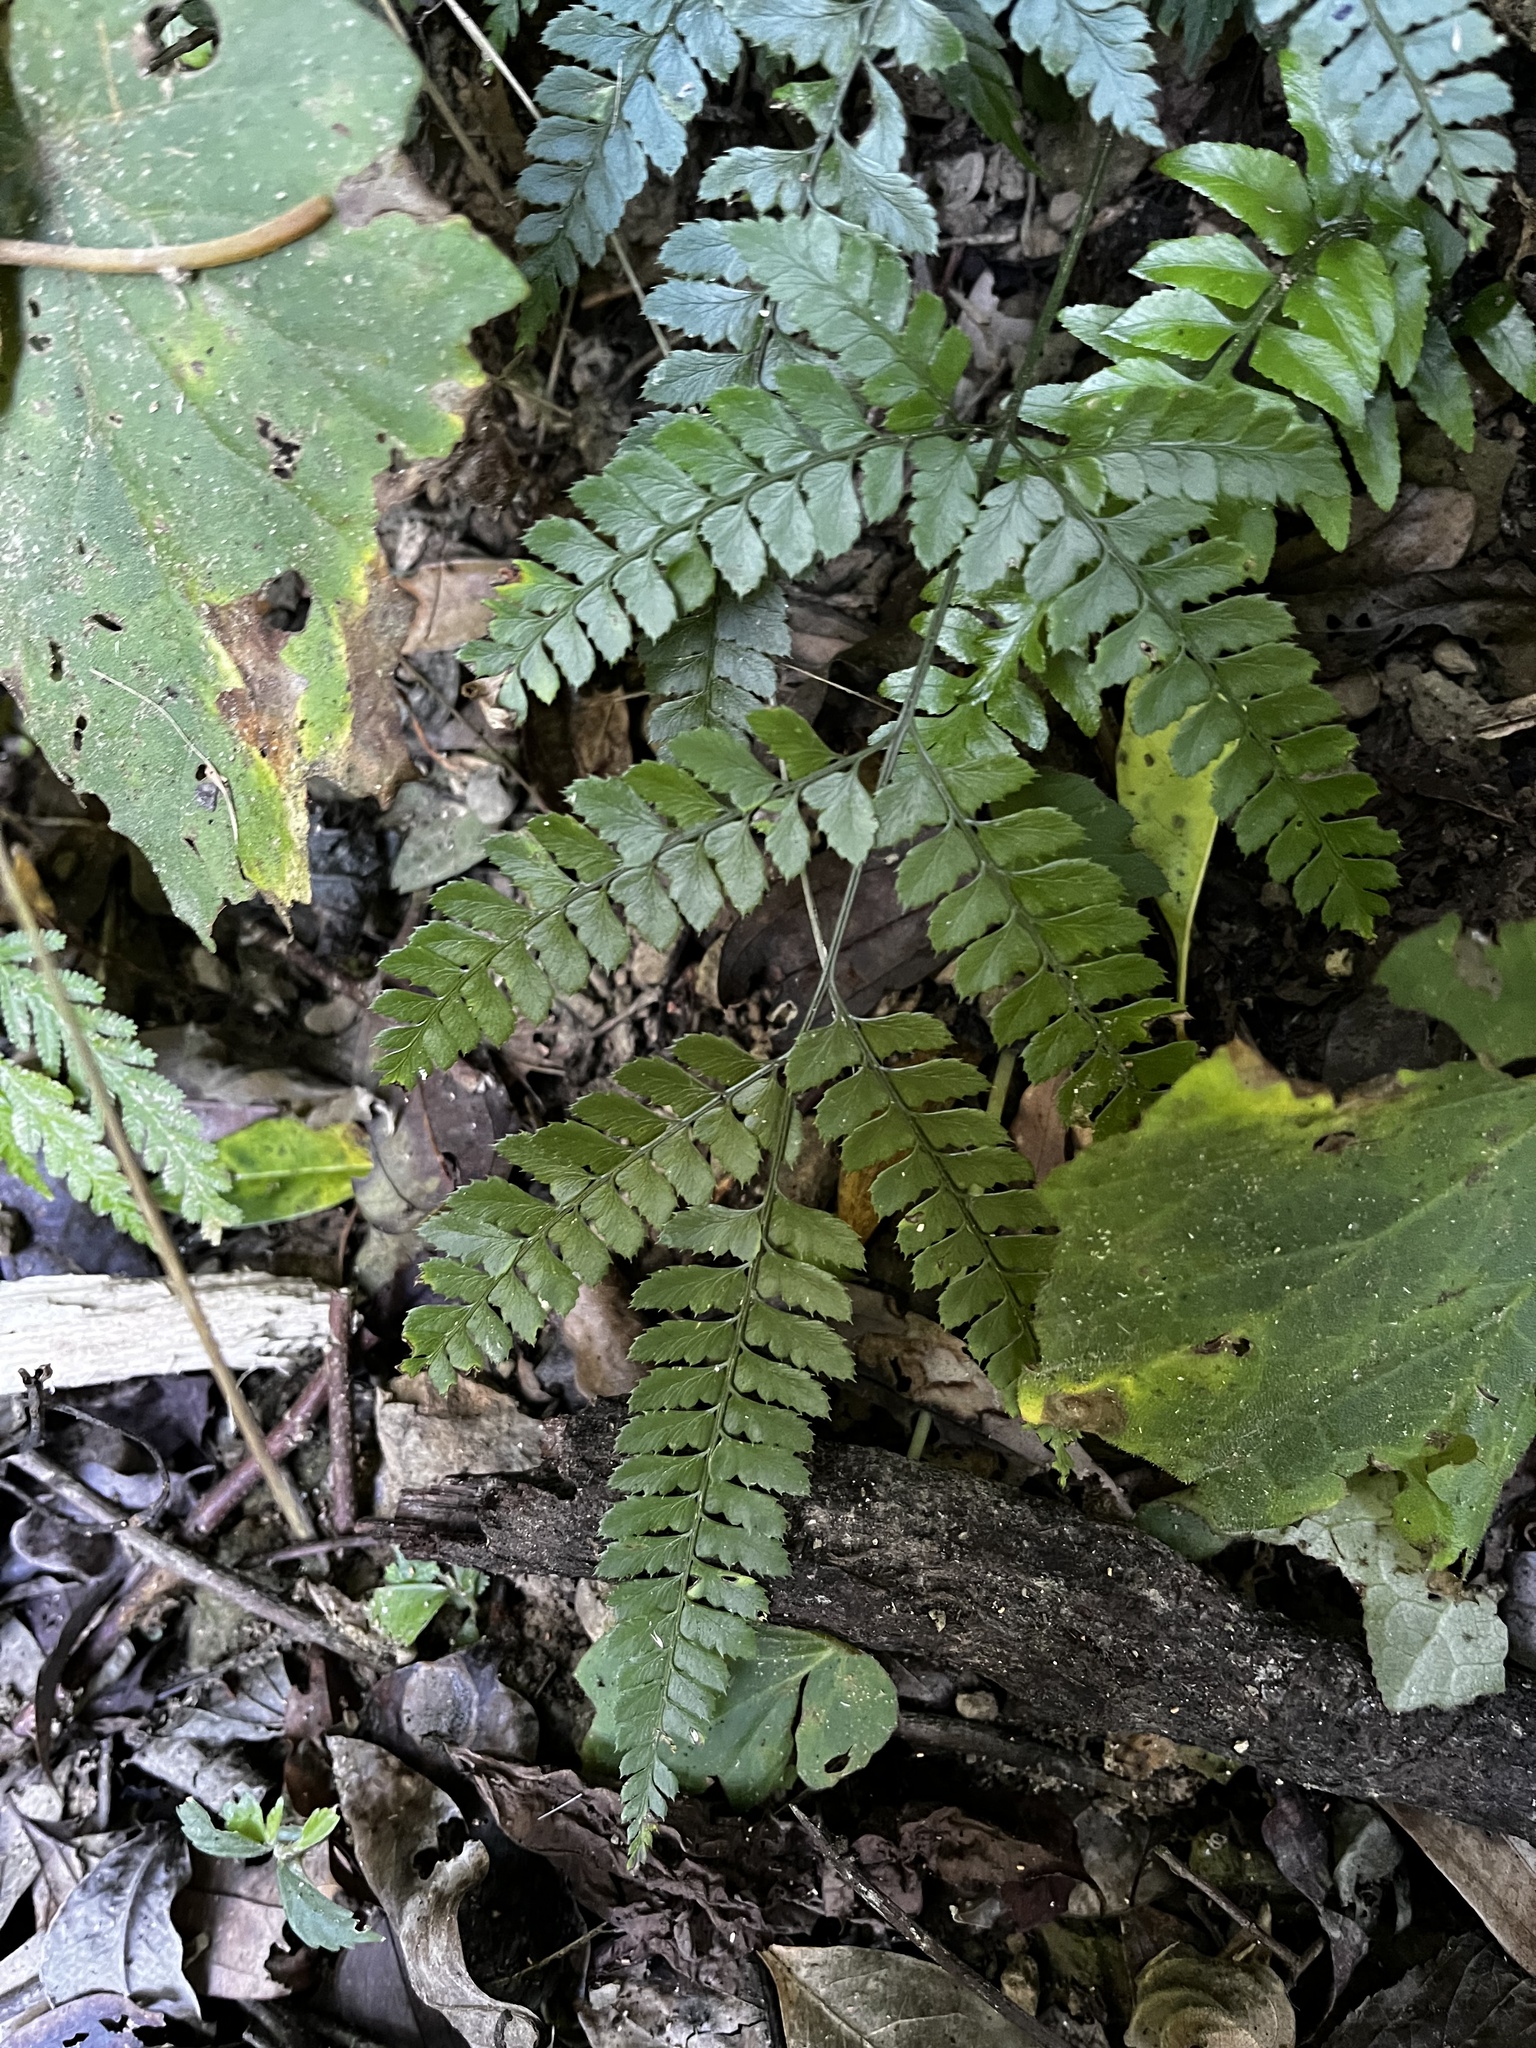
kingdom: Plantae
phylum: Tracheophyta
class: Polypodiopsida
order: Polypodiales
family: Dryopteridaceae
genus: Arachniodes
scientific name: Arachniodes amabilis
